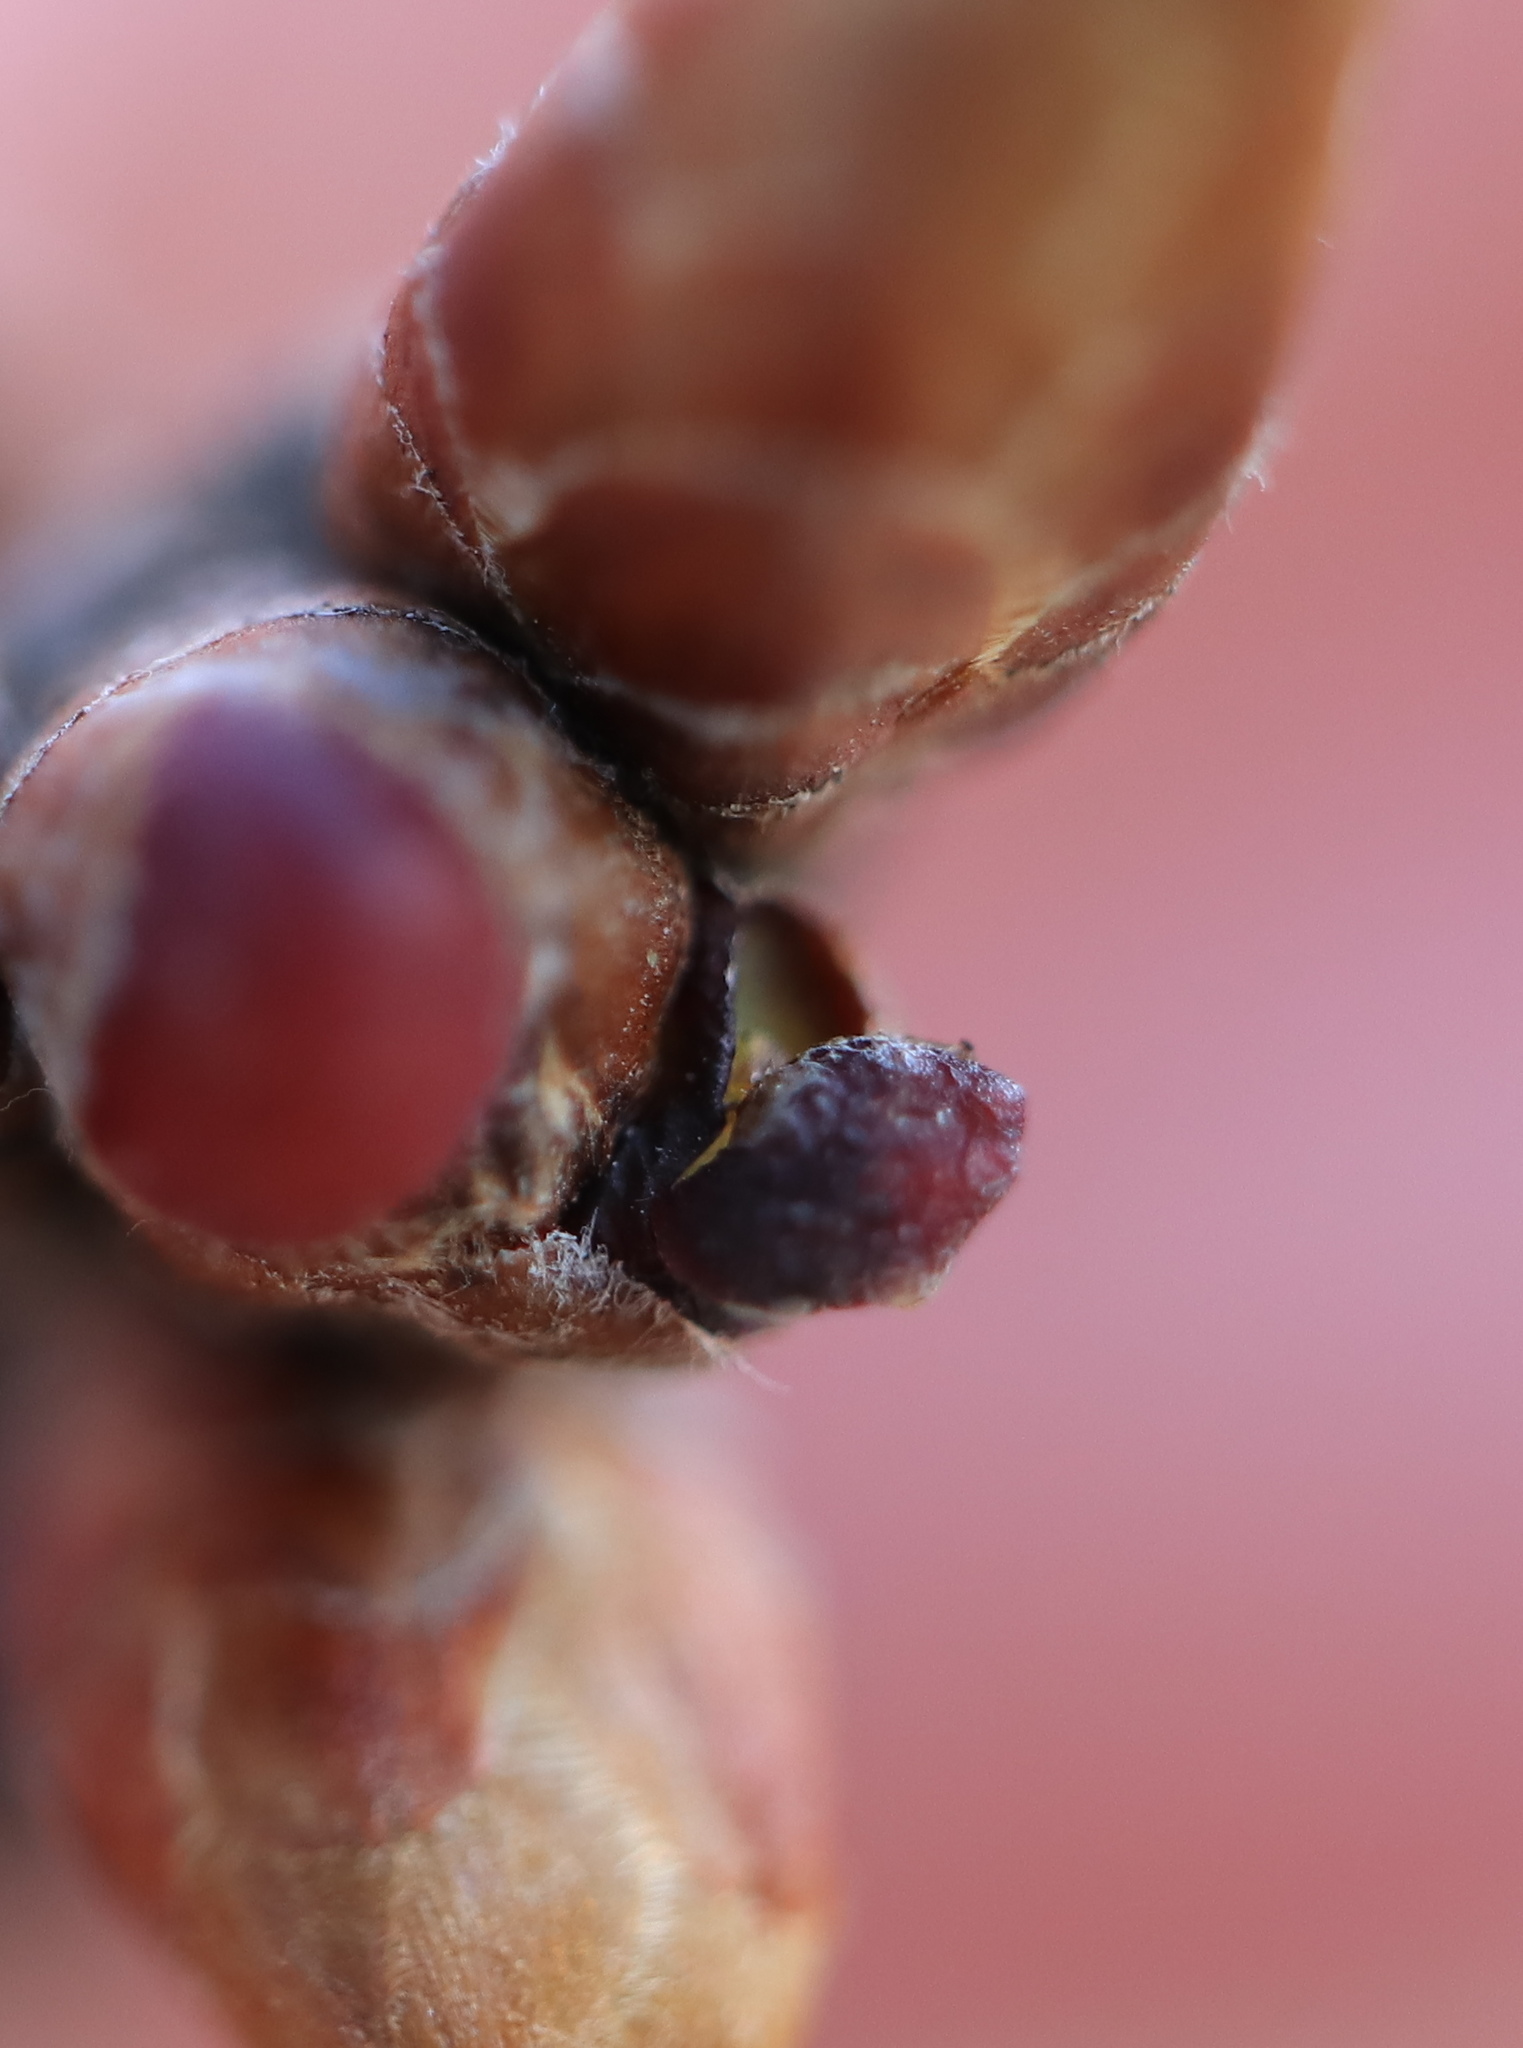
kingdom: Animalia
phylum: Arthropoda
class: Insecta
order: Hymenoptera
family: Cynipidae
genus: Neuroterus
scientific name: Neuroterus
